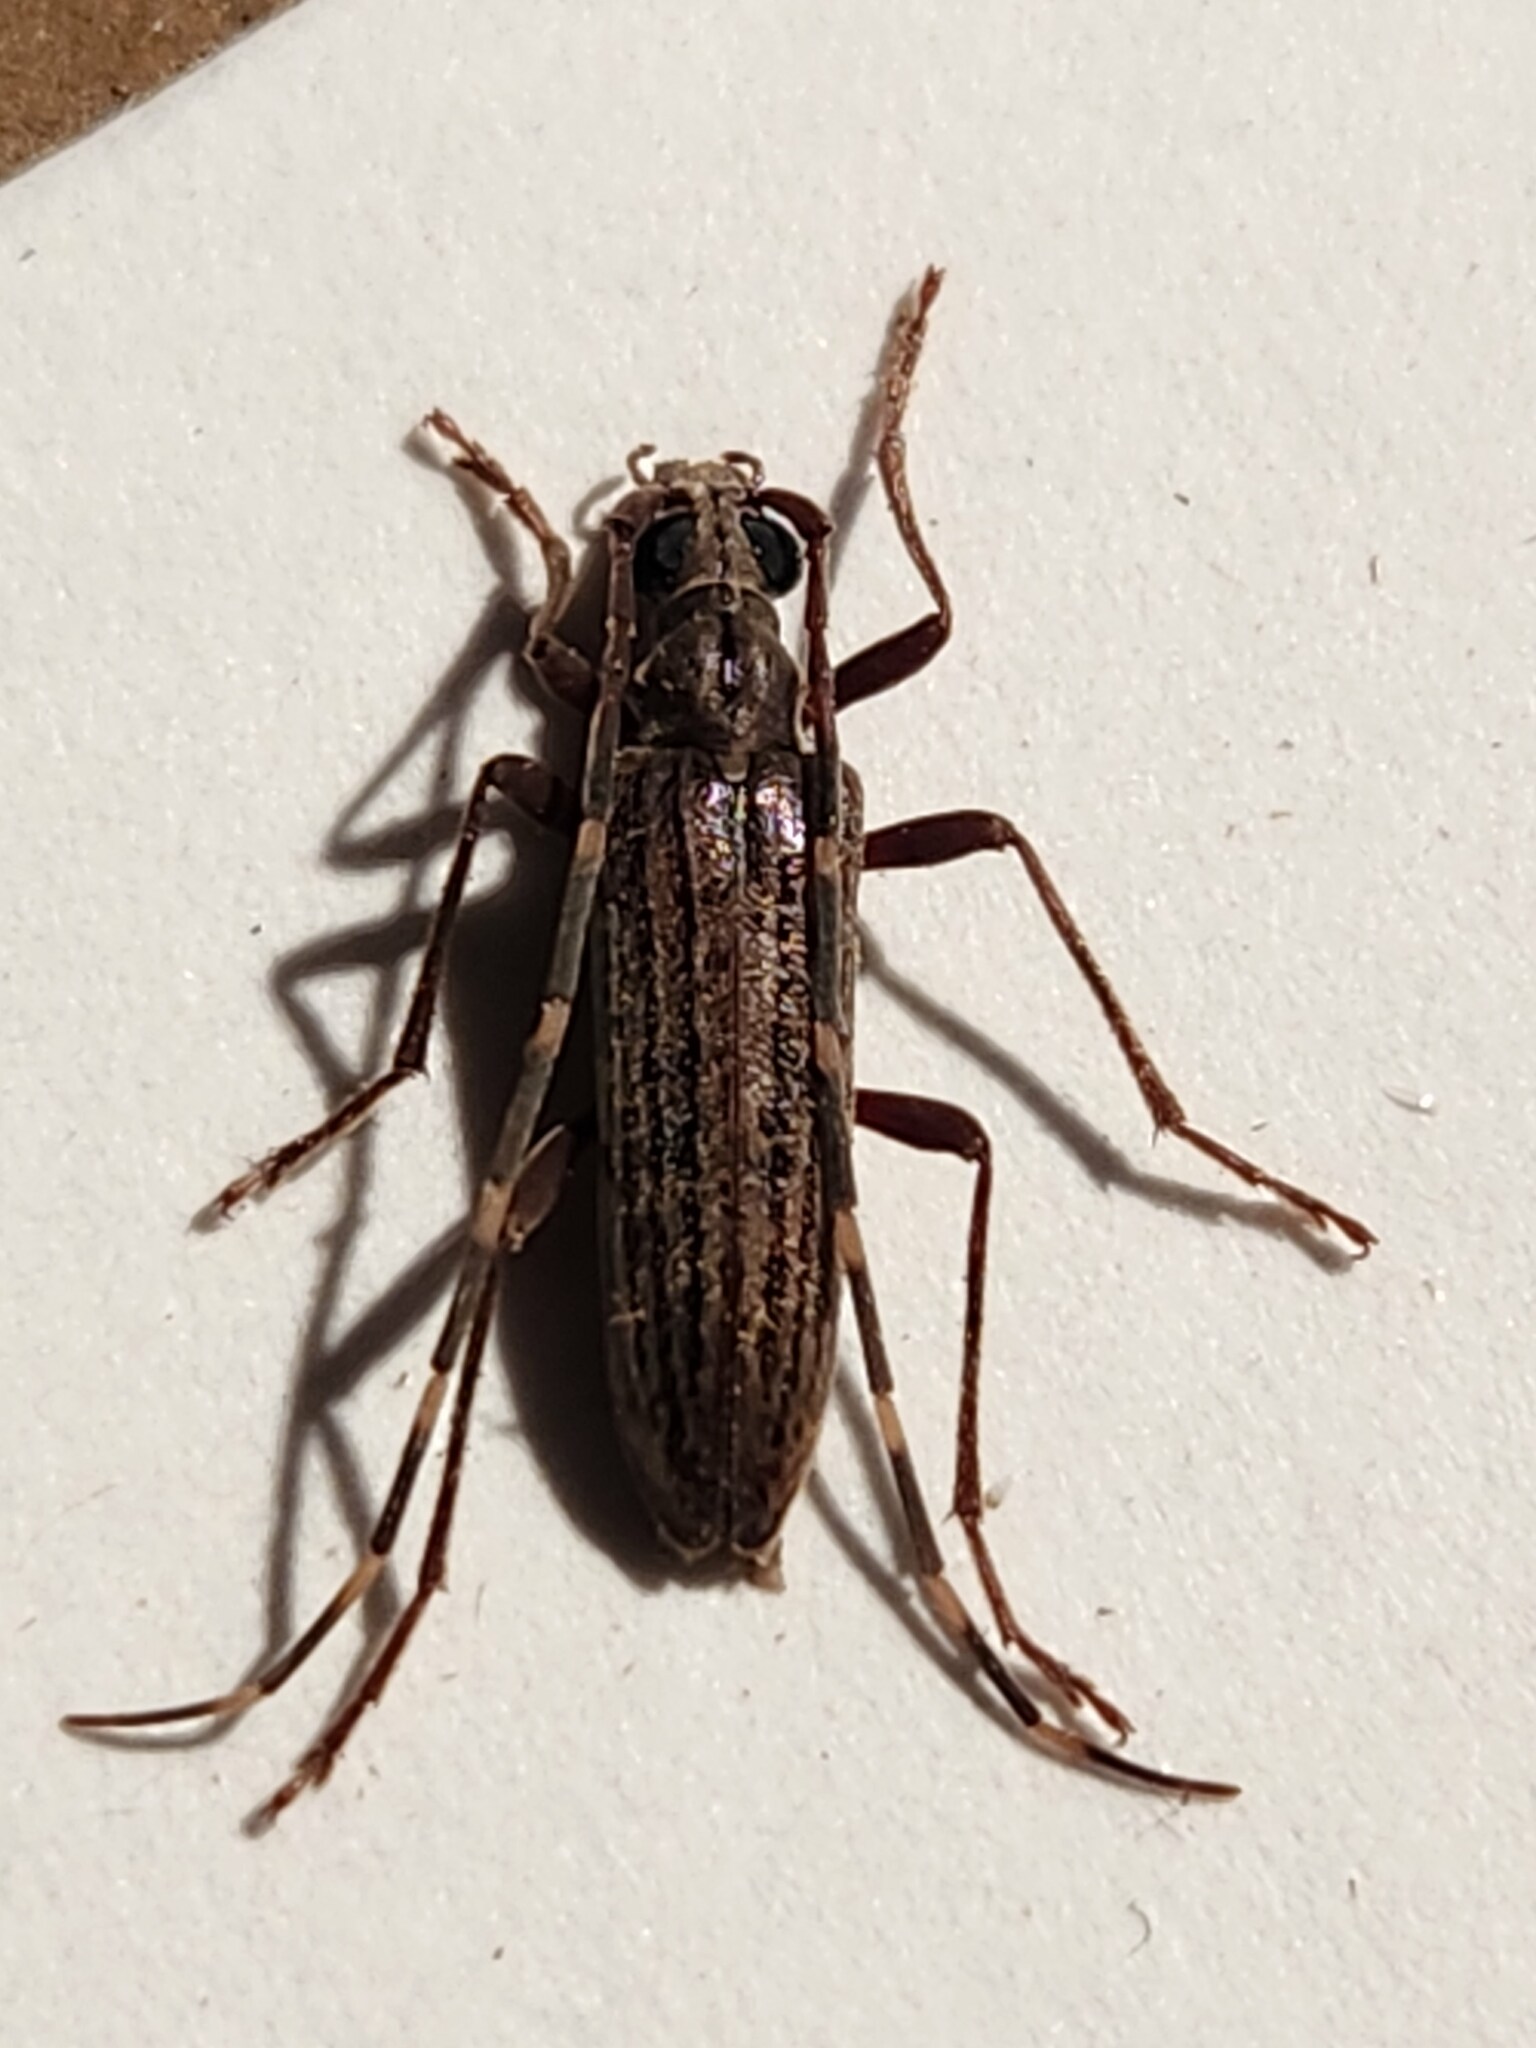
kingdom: Animalia
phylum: Arthropoda
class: Insecta
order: Coleoptera
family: Cerambycidae
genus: Centrodera
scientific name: Centrodera sublineata
